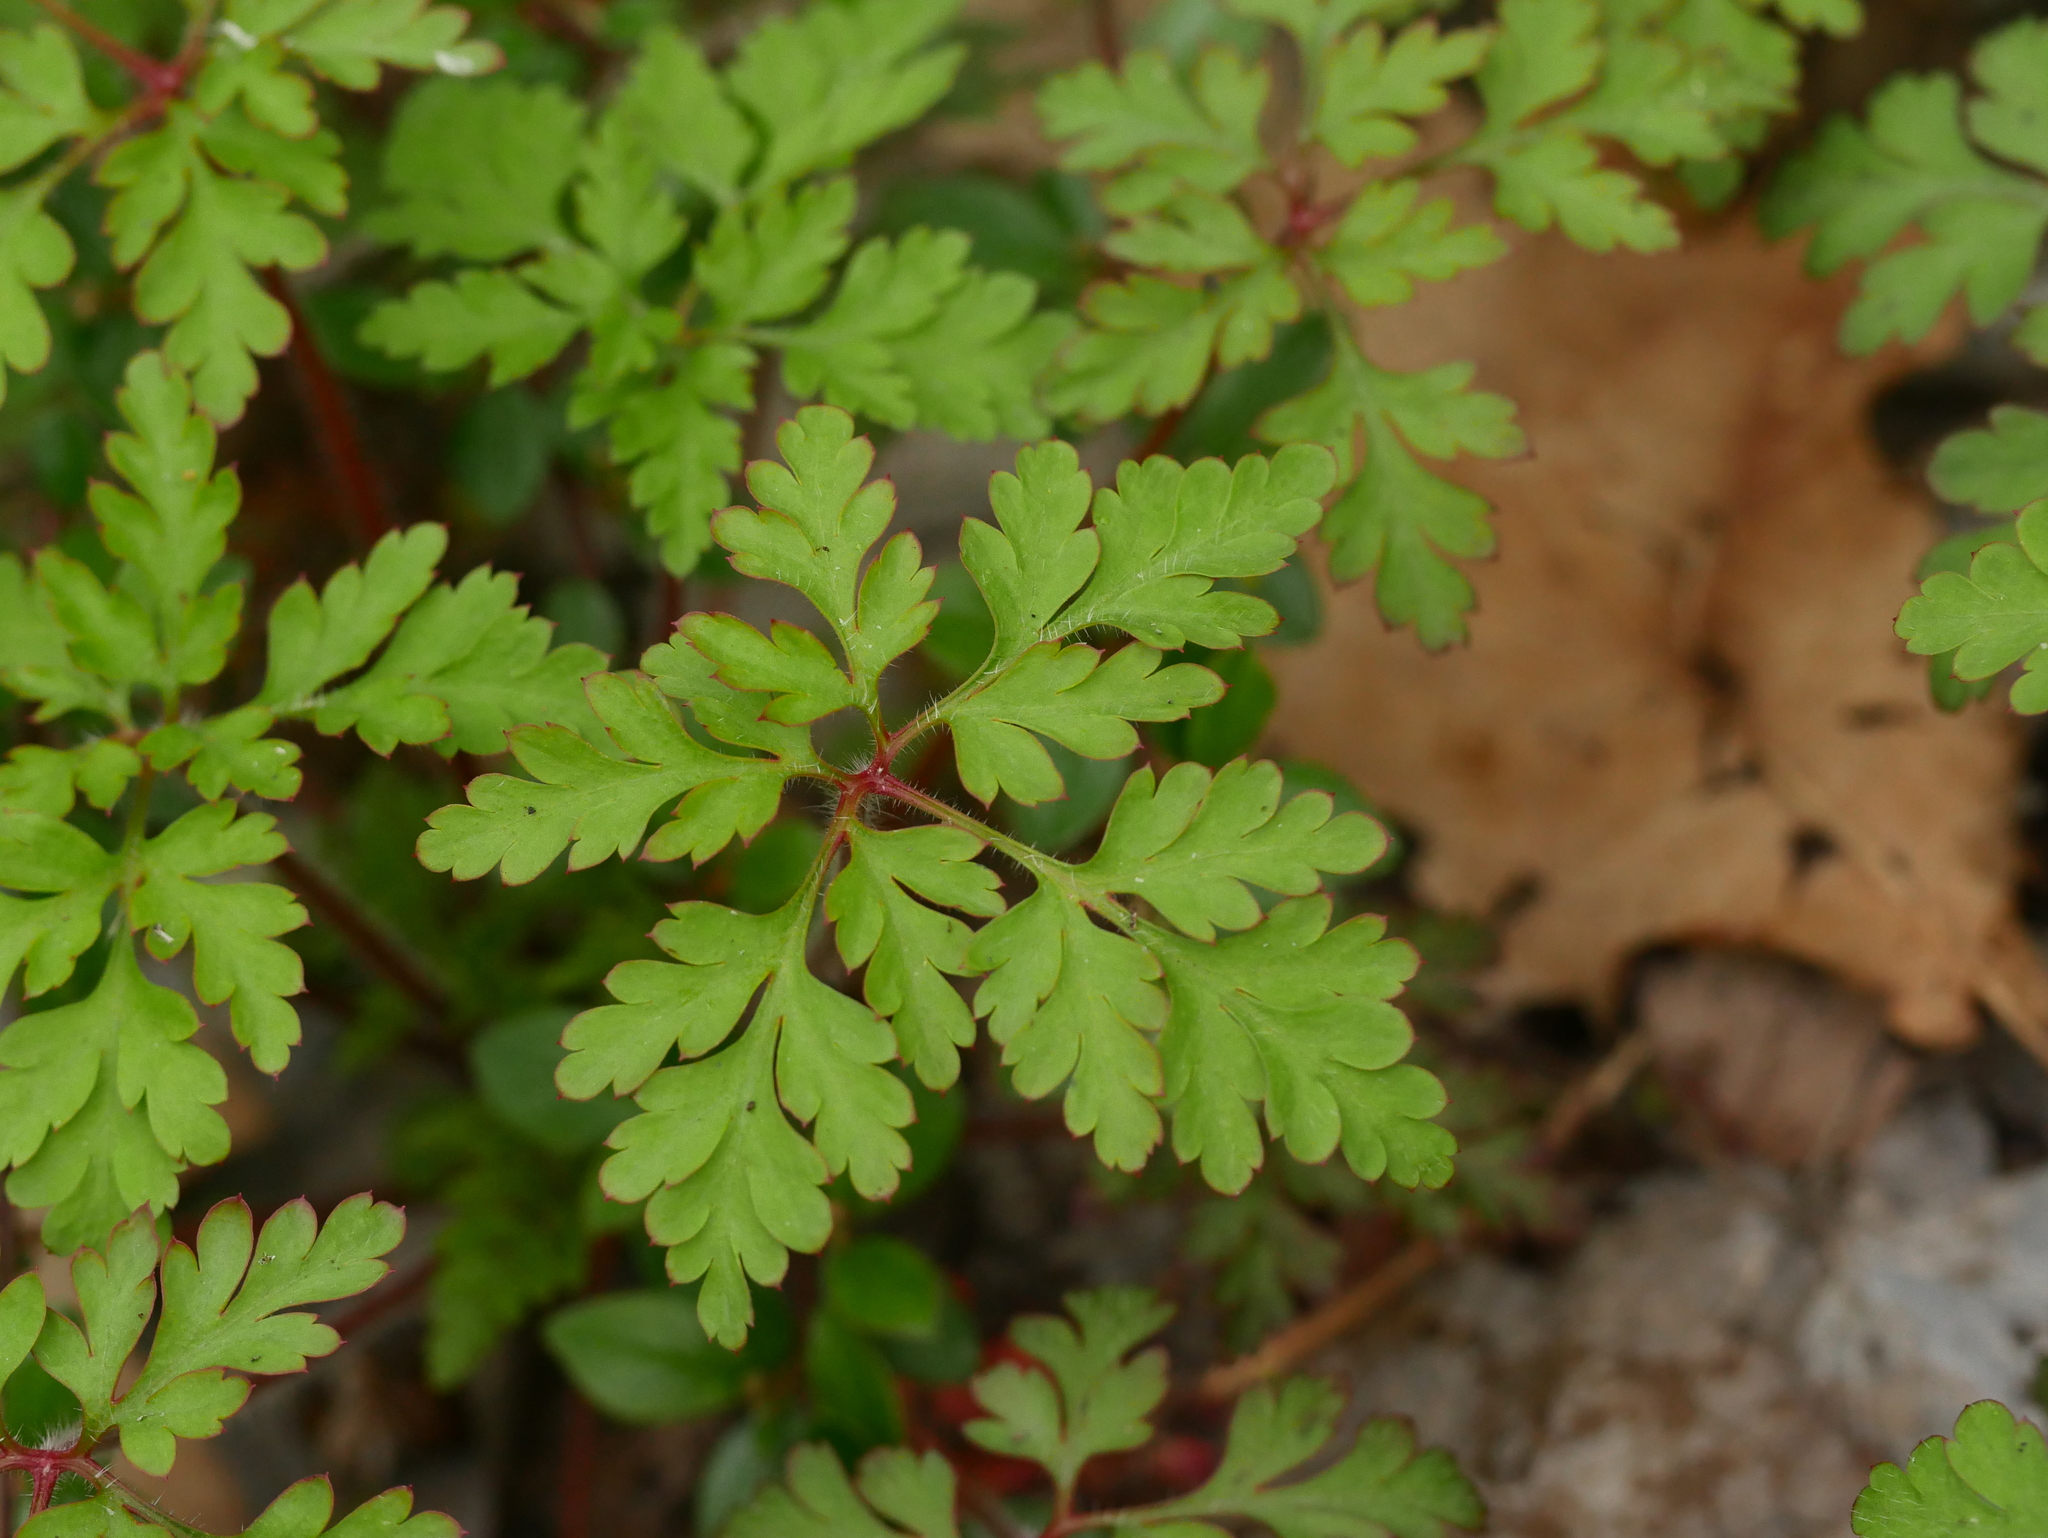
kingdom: Plantae
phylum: Tracheophyta
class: Magnoliopsida
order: Geraniales
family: Geraniaceae
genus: Geranium
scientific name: Geranium robertianum
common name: Herb-robert
